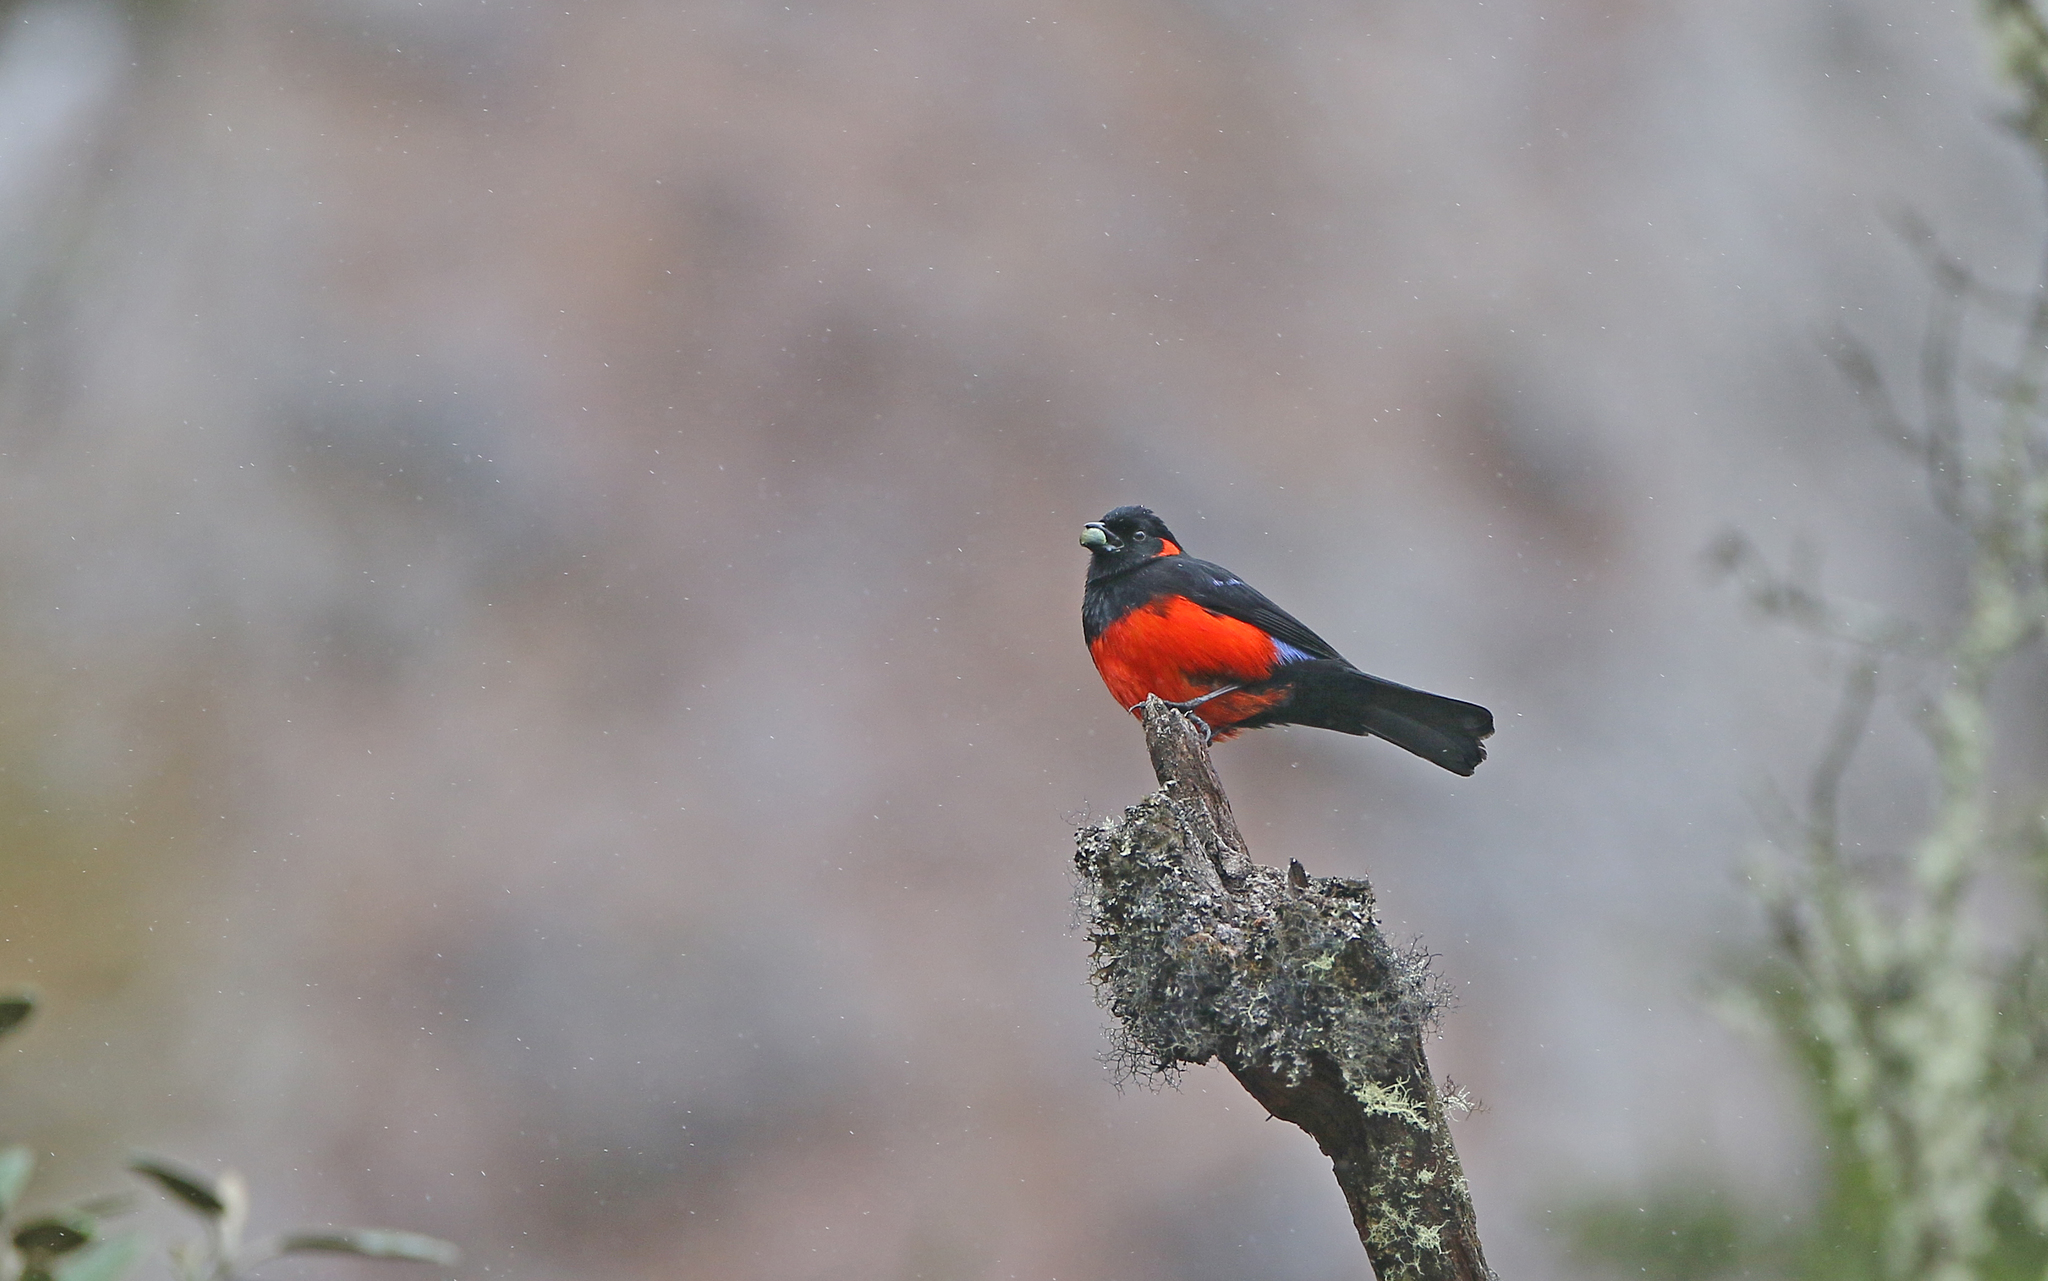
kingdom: Animalia
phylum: Chordata
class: Aves
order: Passeriformes
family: Thraupidae
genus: Anisognathus
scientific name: Anisognathus igniventris
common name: Scarlet-bellied mountain tanager
